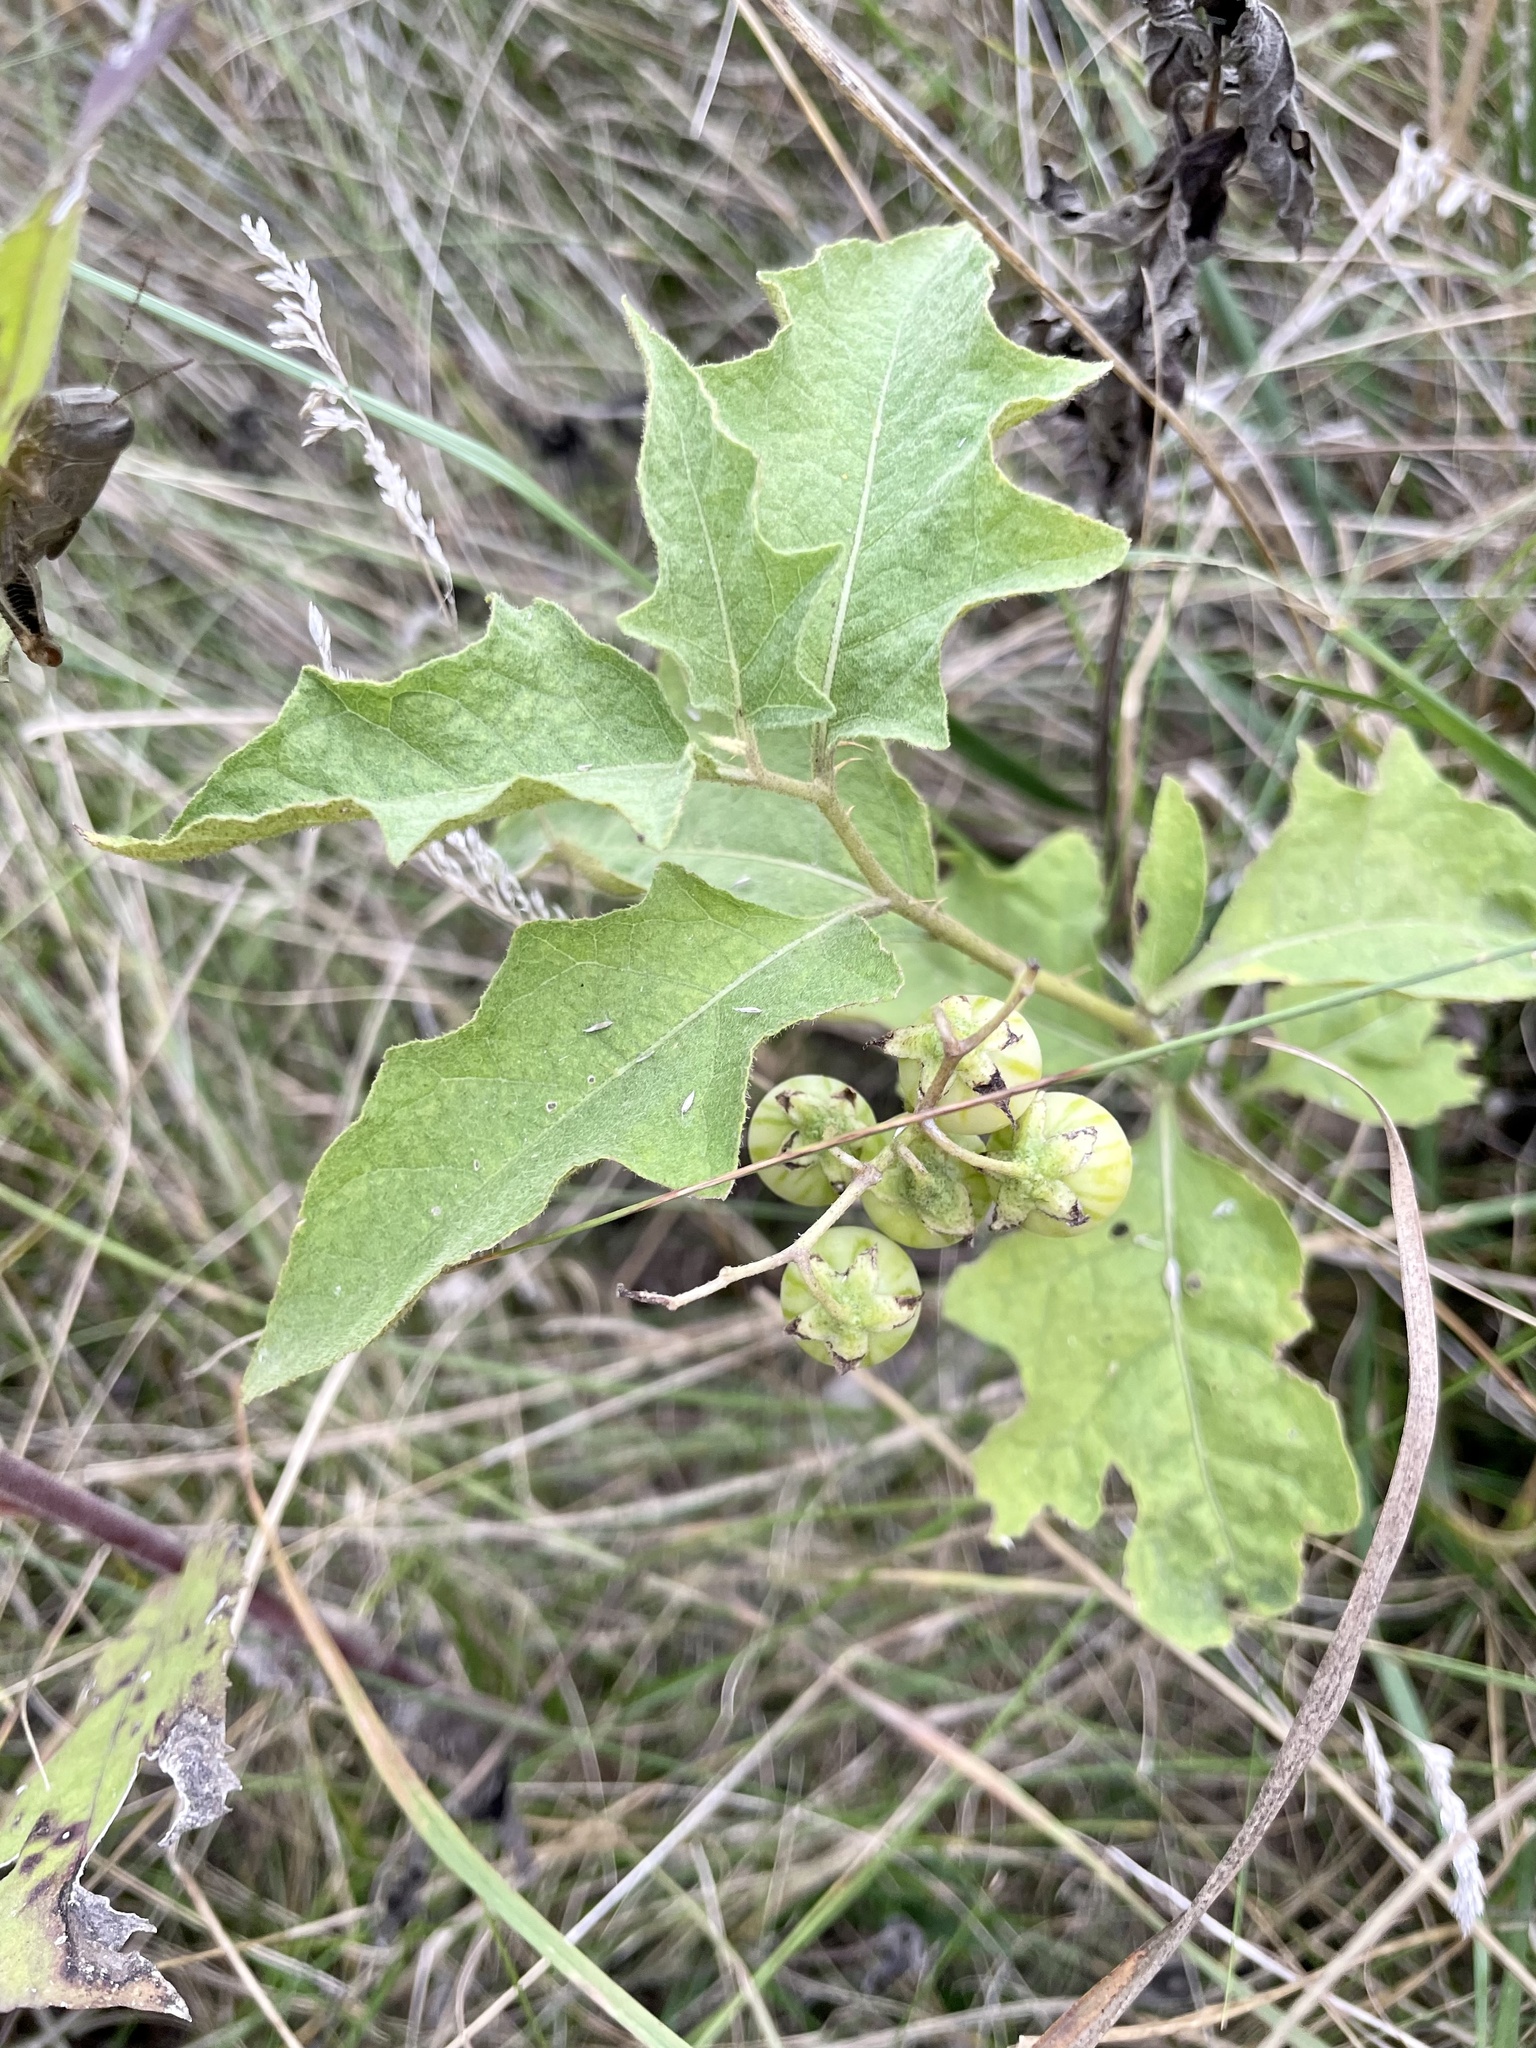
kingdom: Plantae
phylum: Tracheophyta
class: Magnoliopsida
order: Solanales
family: Solanaceae
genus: Solanum
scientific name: Solanum carolinense
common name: Horse-nettle
